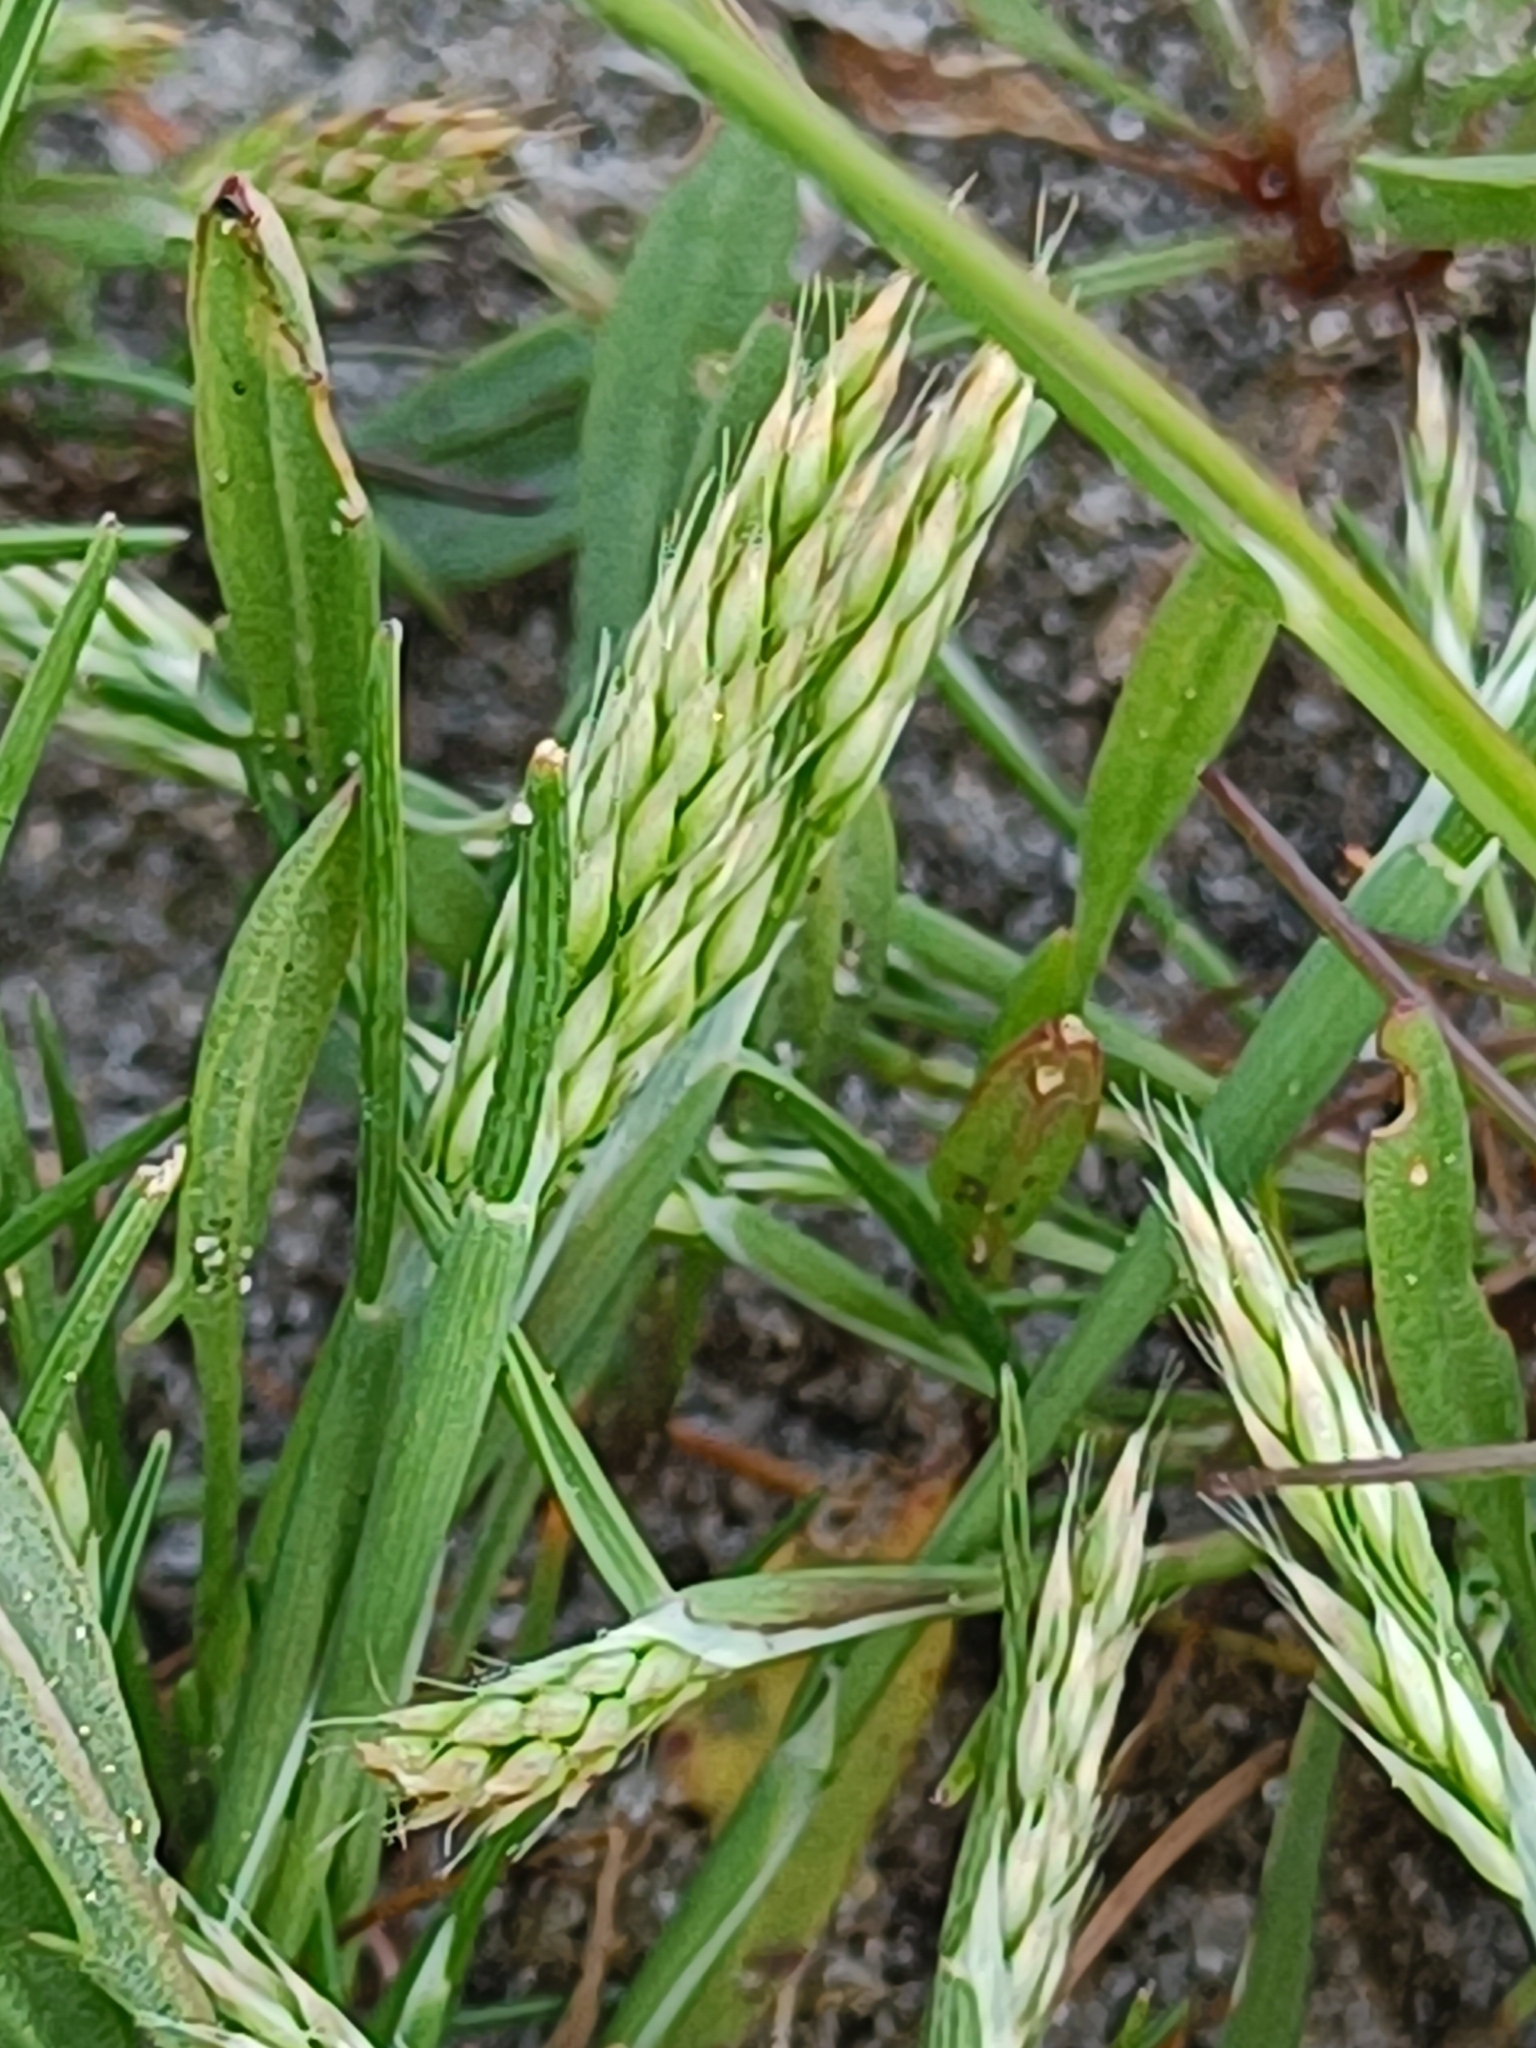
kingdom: Plantae
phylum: Tracheophyta
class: Liliopsida
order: Poales
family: Poaceae
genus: Aira
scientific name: Aira praecox
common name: Early hair-grass
